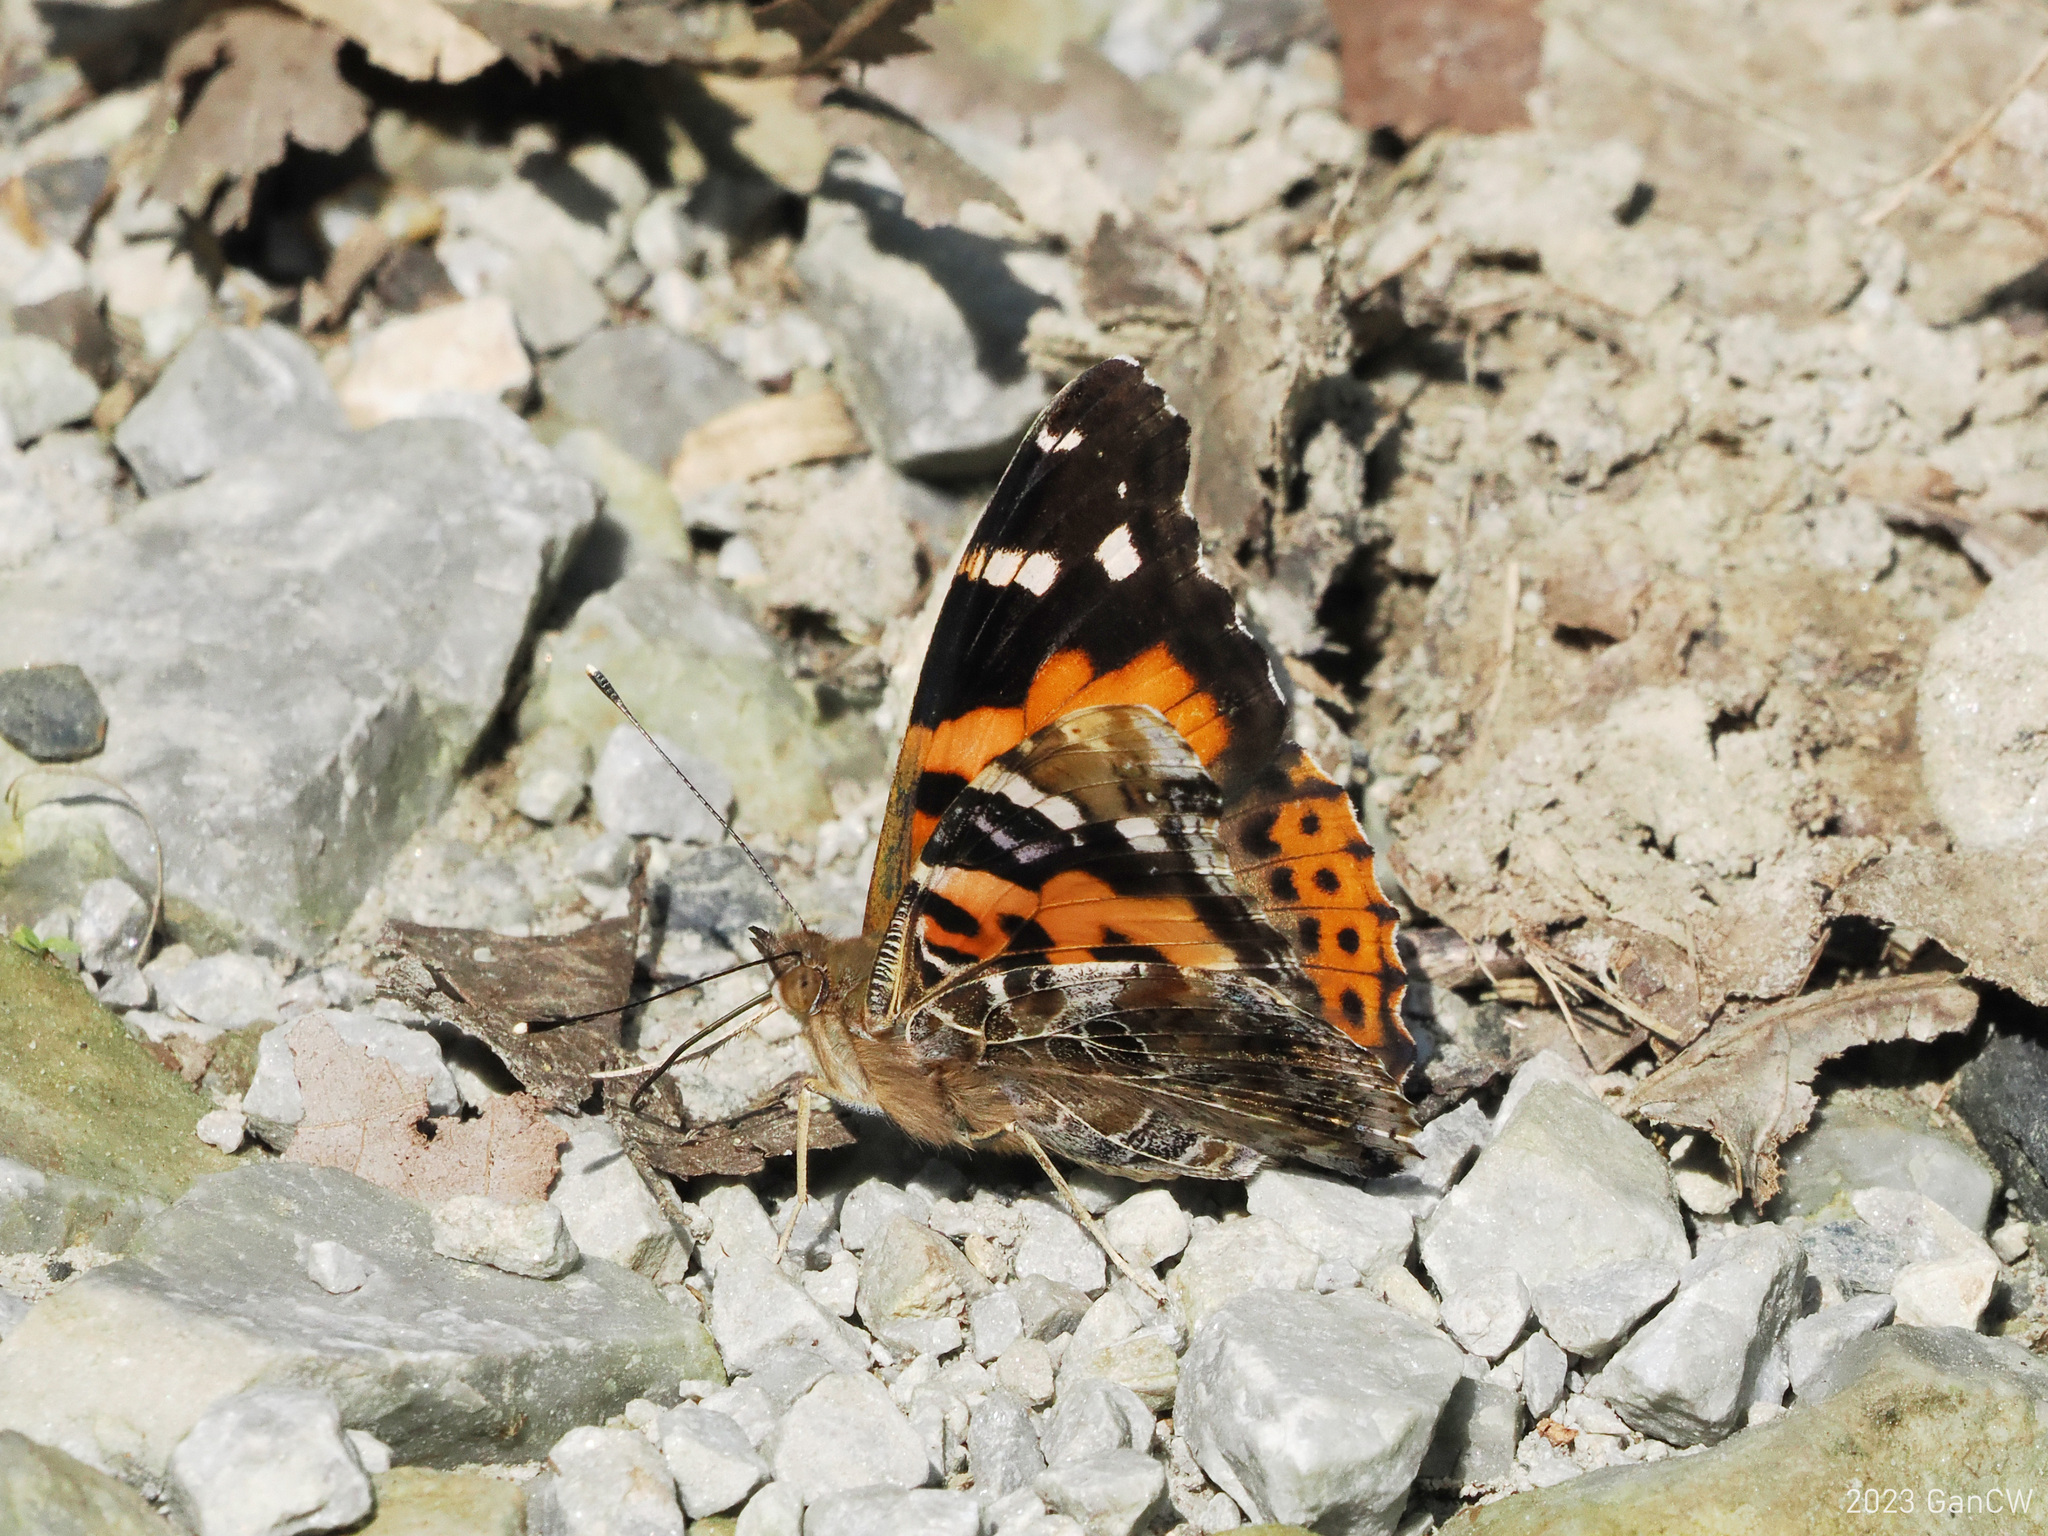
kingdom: Animalia
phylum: Arthropoda
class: Insecta
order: Lepidoptera
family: Nymphalidae
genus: Vanessa
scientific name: Vanessa indica
